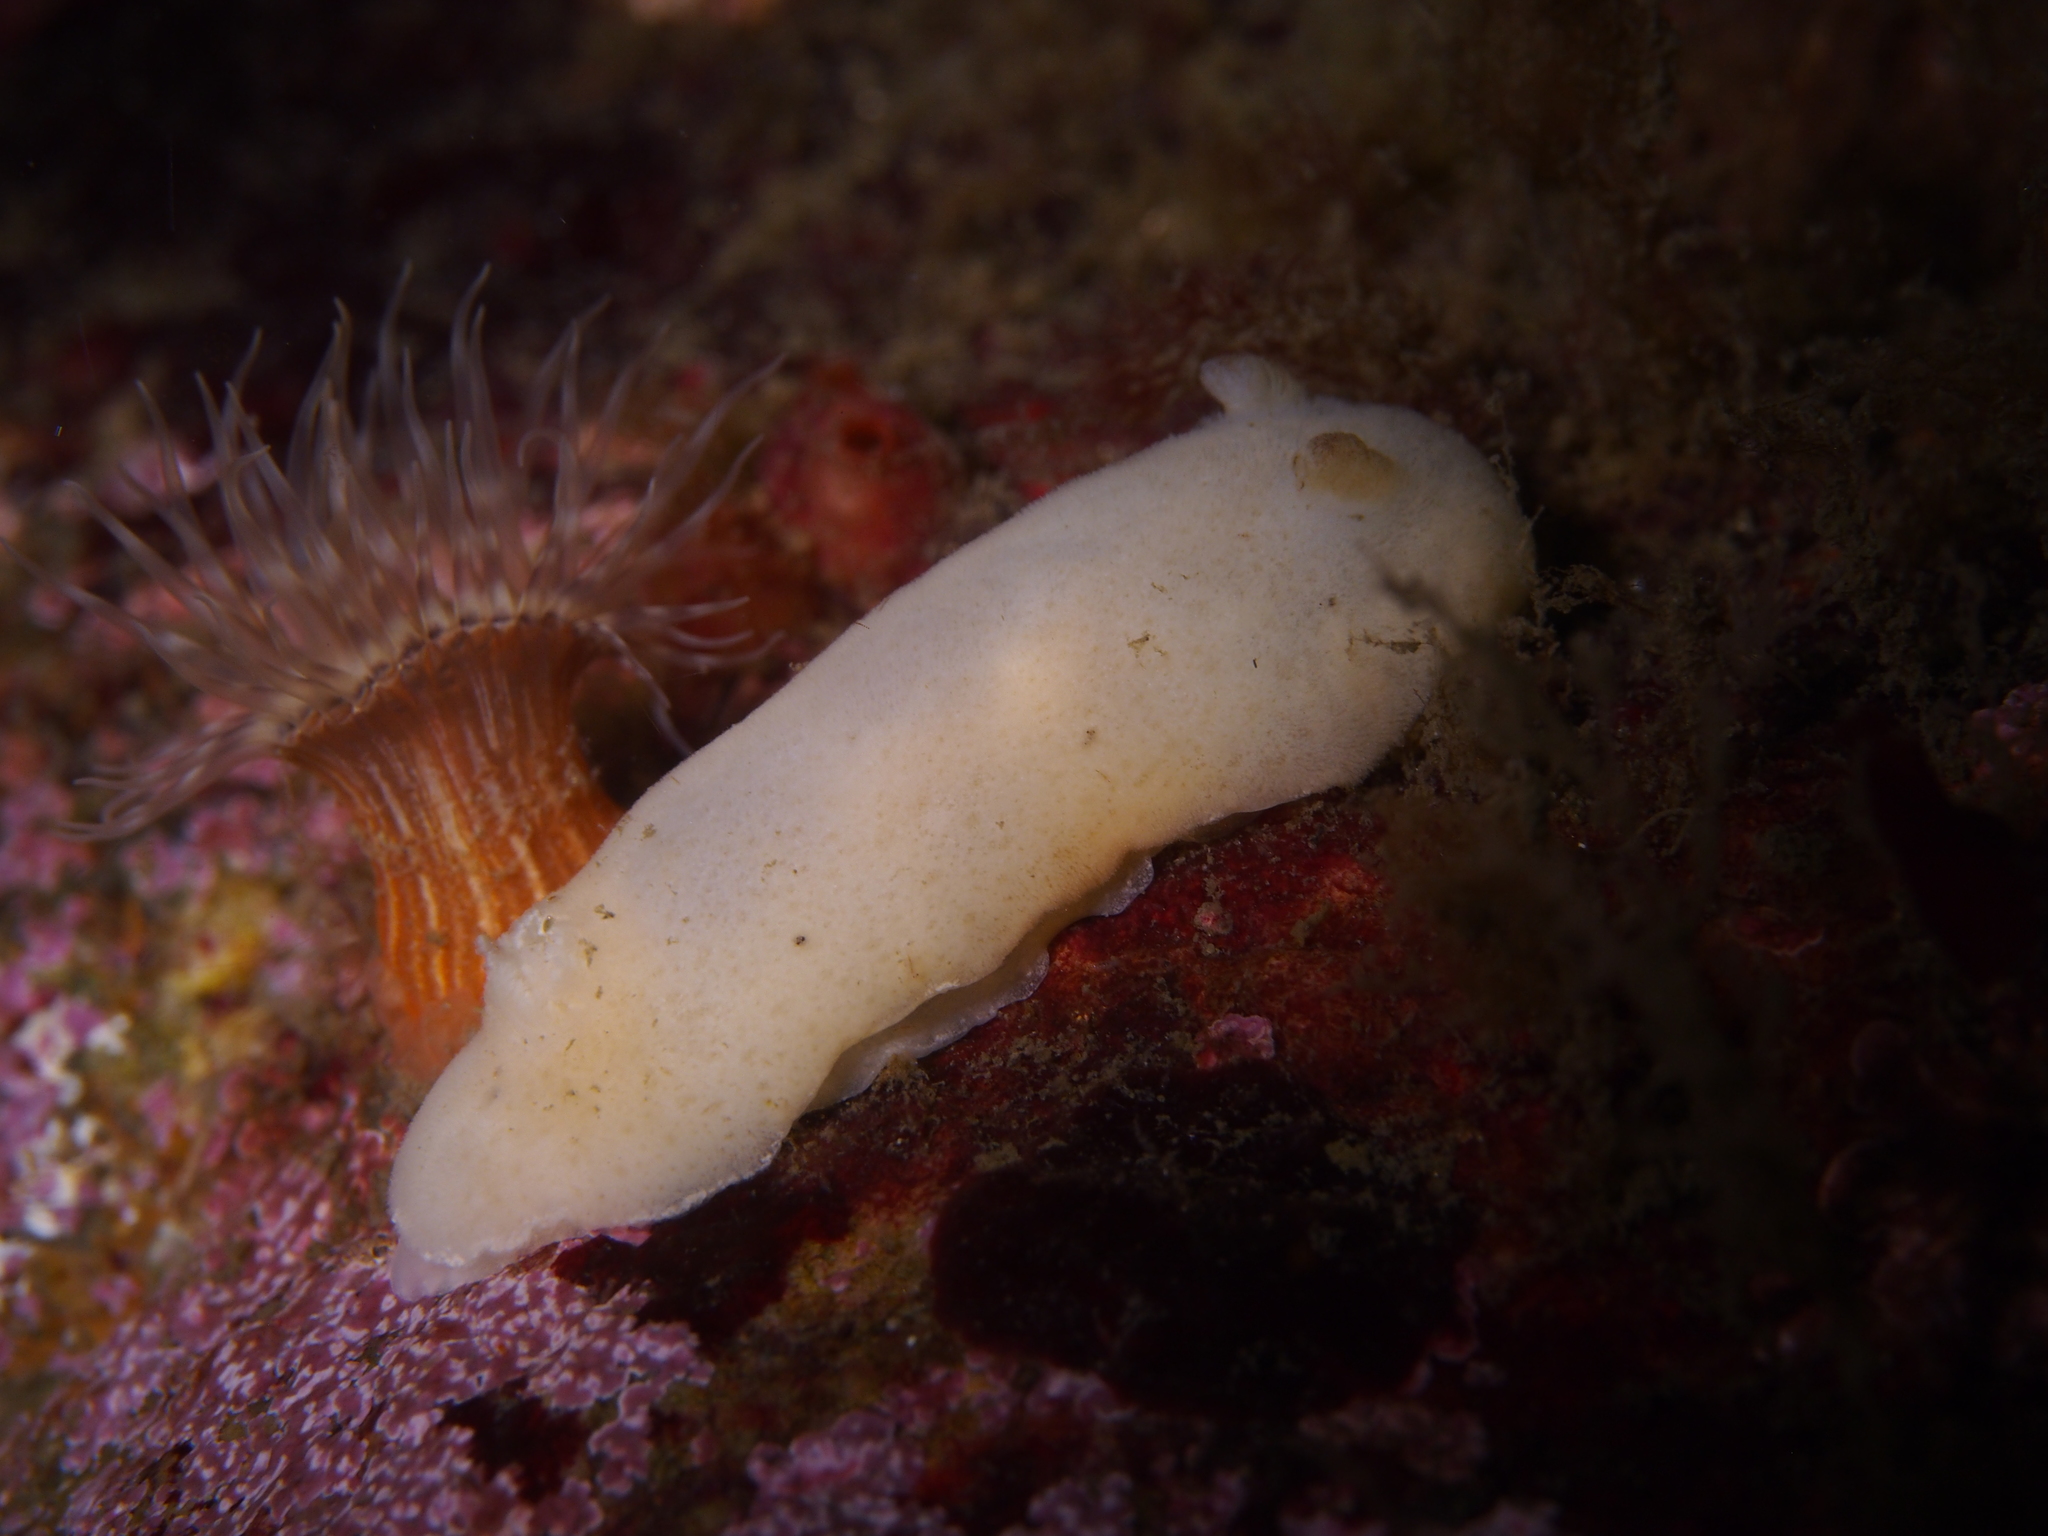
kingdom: Animalia
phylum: Mollusca
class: Gastropoda
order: Nudibranchia
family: Discodorididae
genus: Jorunna
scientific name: Jorunna tomentosa
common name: Grey sea slug
